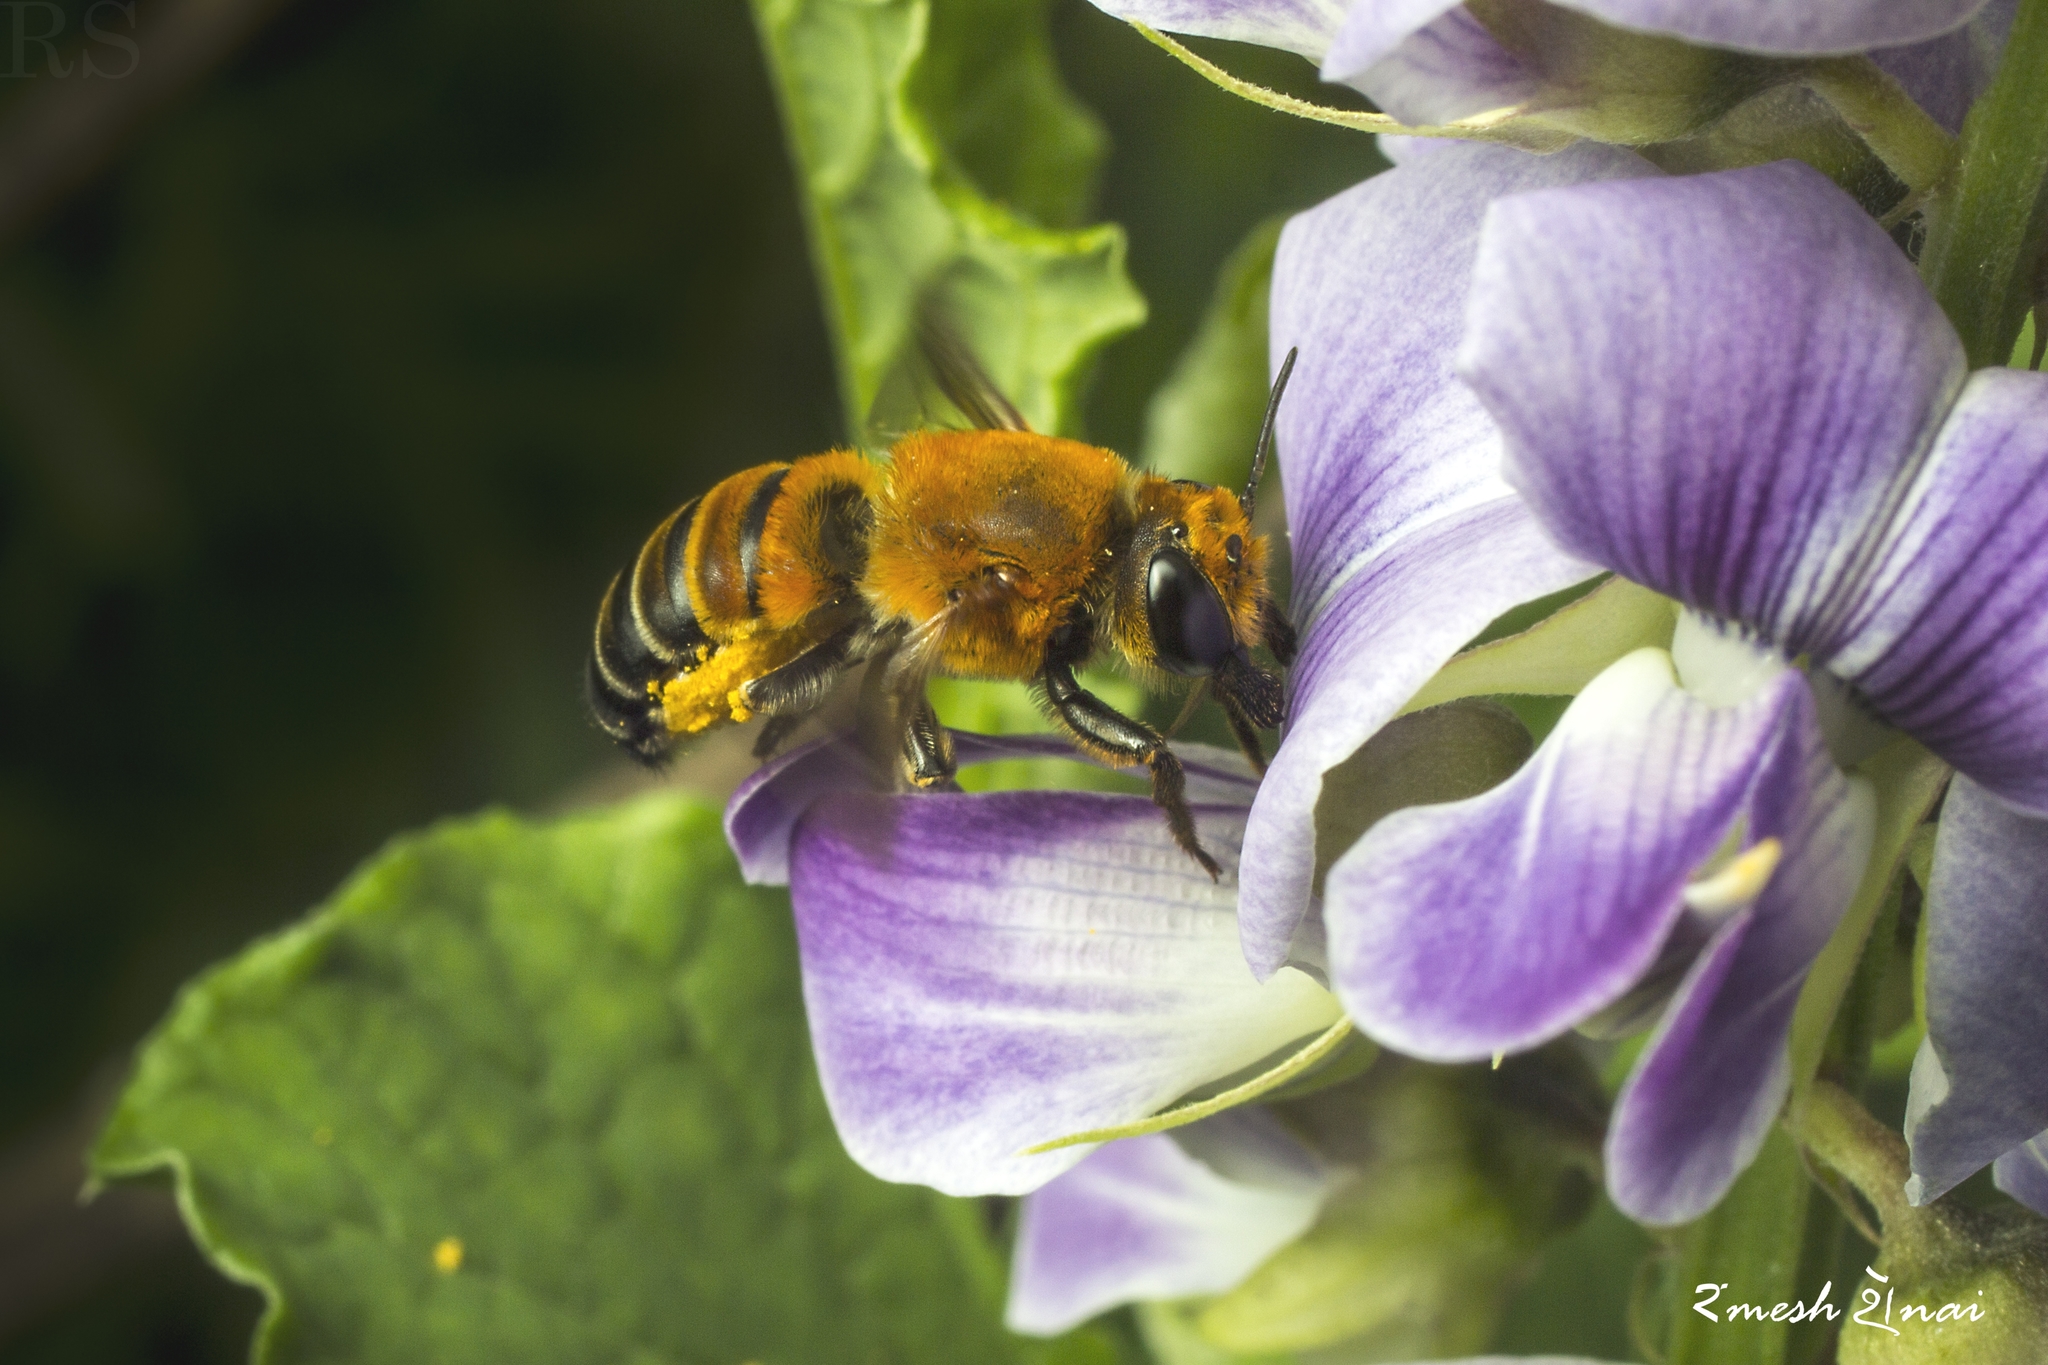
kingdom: Animalia
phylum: Arthropoda
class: Insecta
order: Hymenoptera
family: Megachilidae
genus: Megachile
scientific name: Megachile lanata
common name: Wooly wall bee
